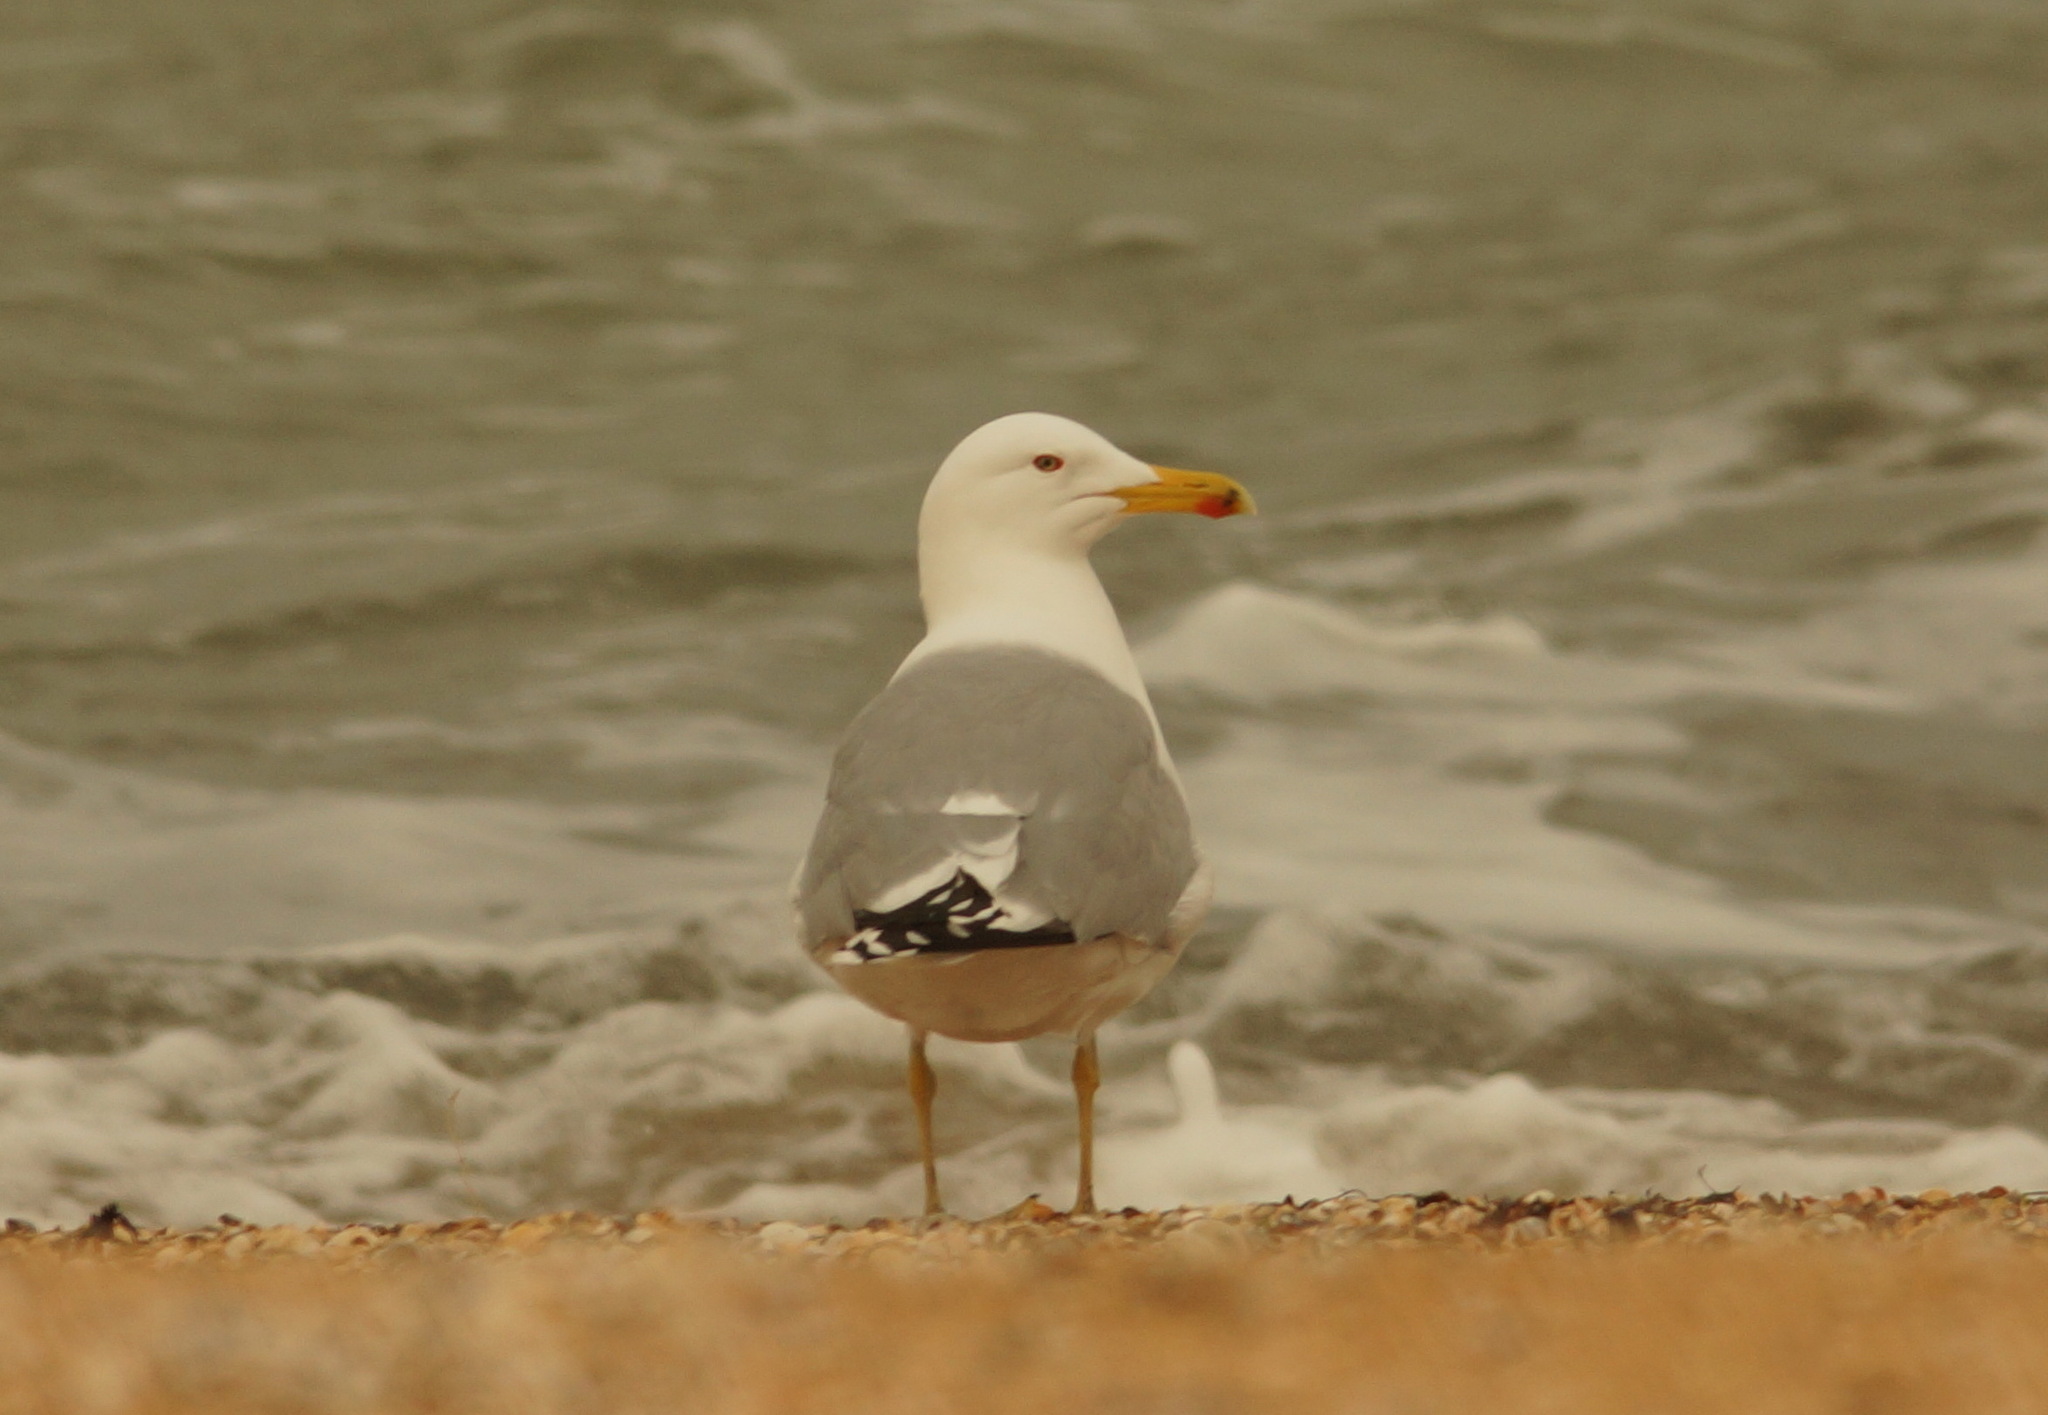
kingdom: Animalia
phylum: Chordata
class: Aves
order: Charadriiformes
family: Laridae
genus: Larus
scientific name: Larus cachinnans
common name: Caspian gull
